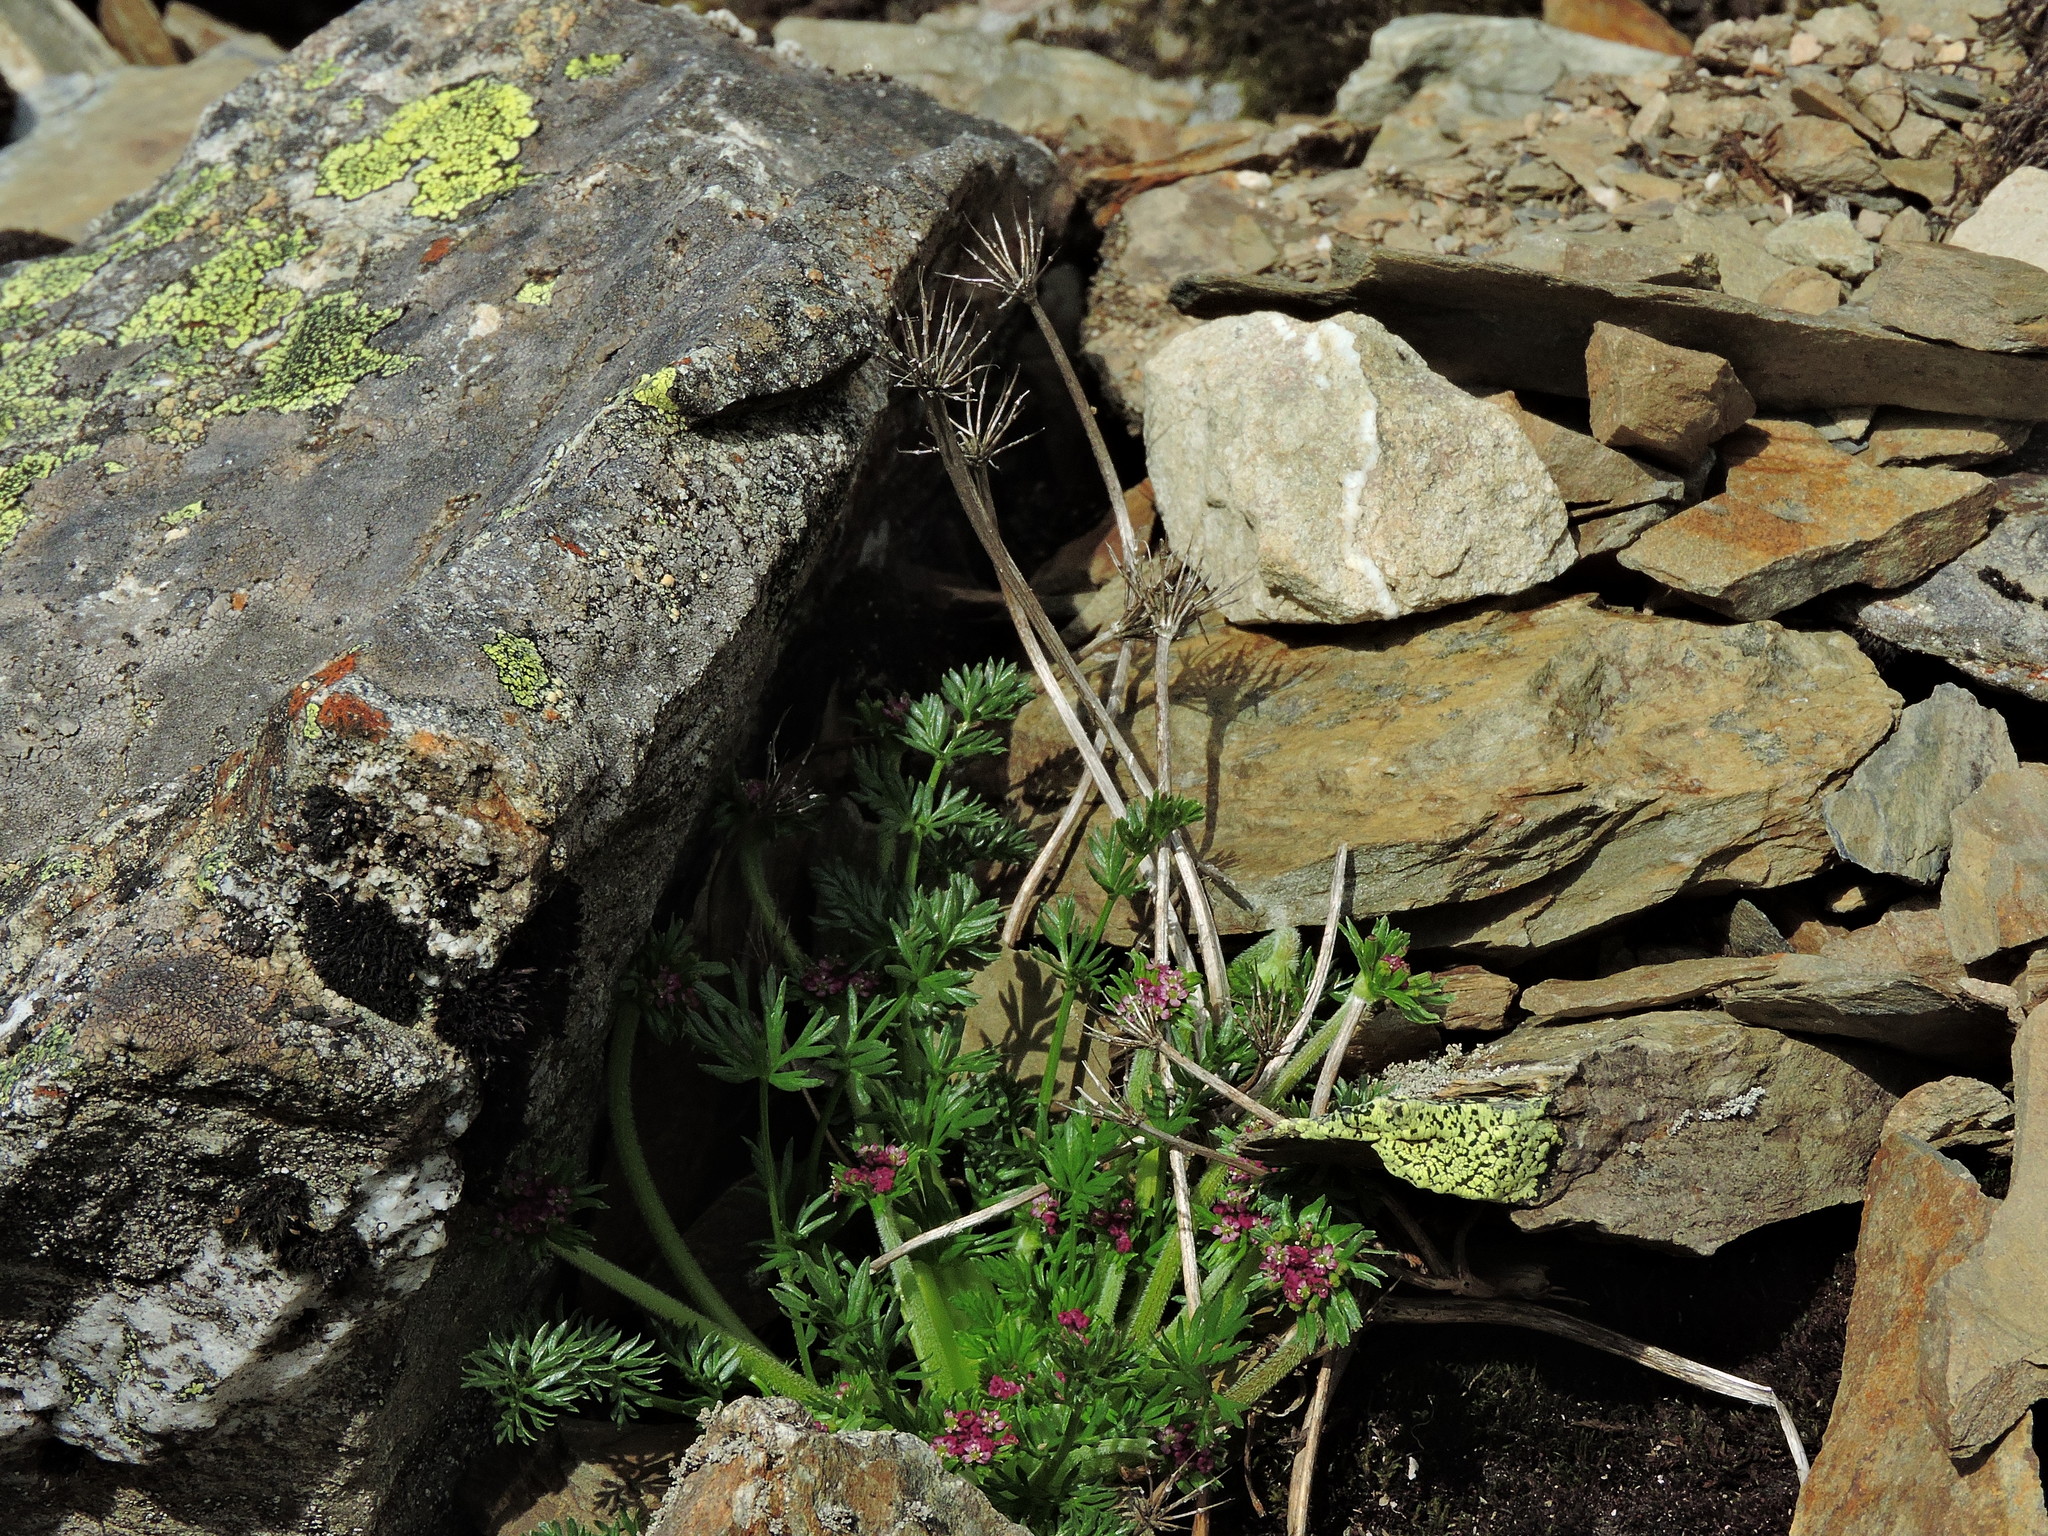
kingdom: Plantae
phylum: Tracheophyta
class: Magnoliopsida
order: Apiales
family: Apiaceae
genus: Chaerophyllum
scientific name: Chaerophyllum taiwanianum
